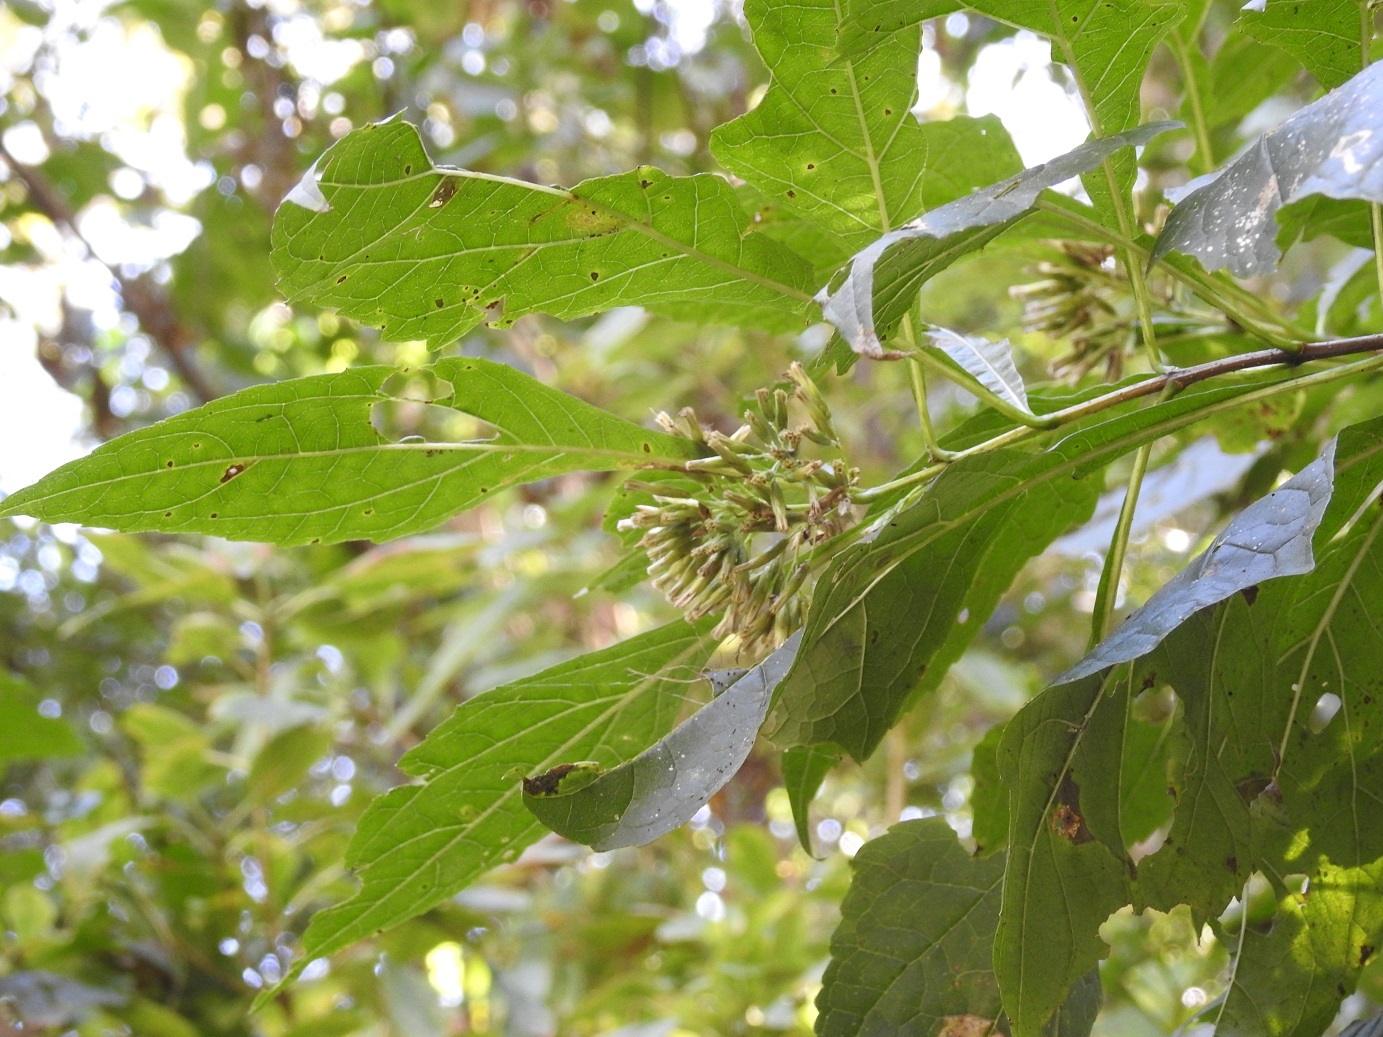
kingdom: Plantae
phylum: Tracheophyta
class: Magnoliopsida
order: Asterales
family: Asteraceae
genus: Kyrsteniopsis
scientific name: Kyrsteniopsis iltisii
